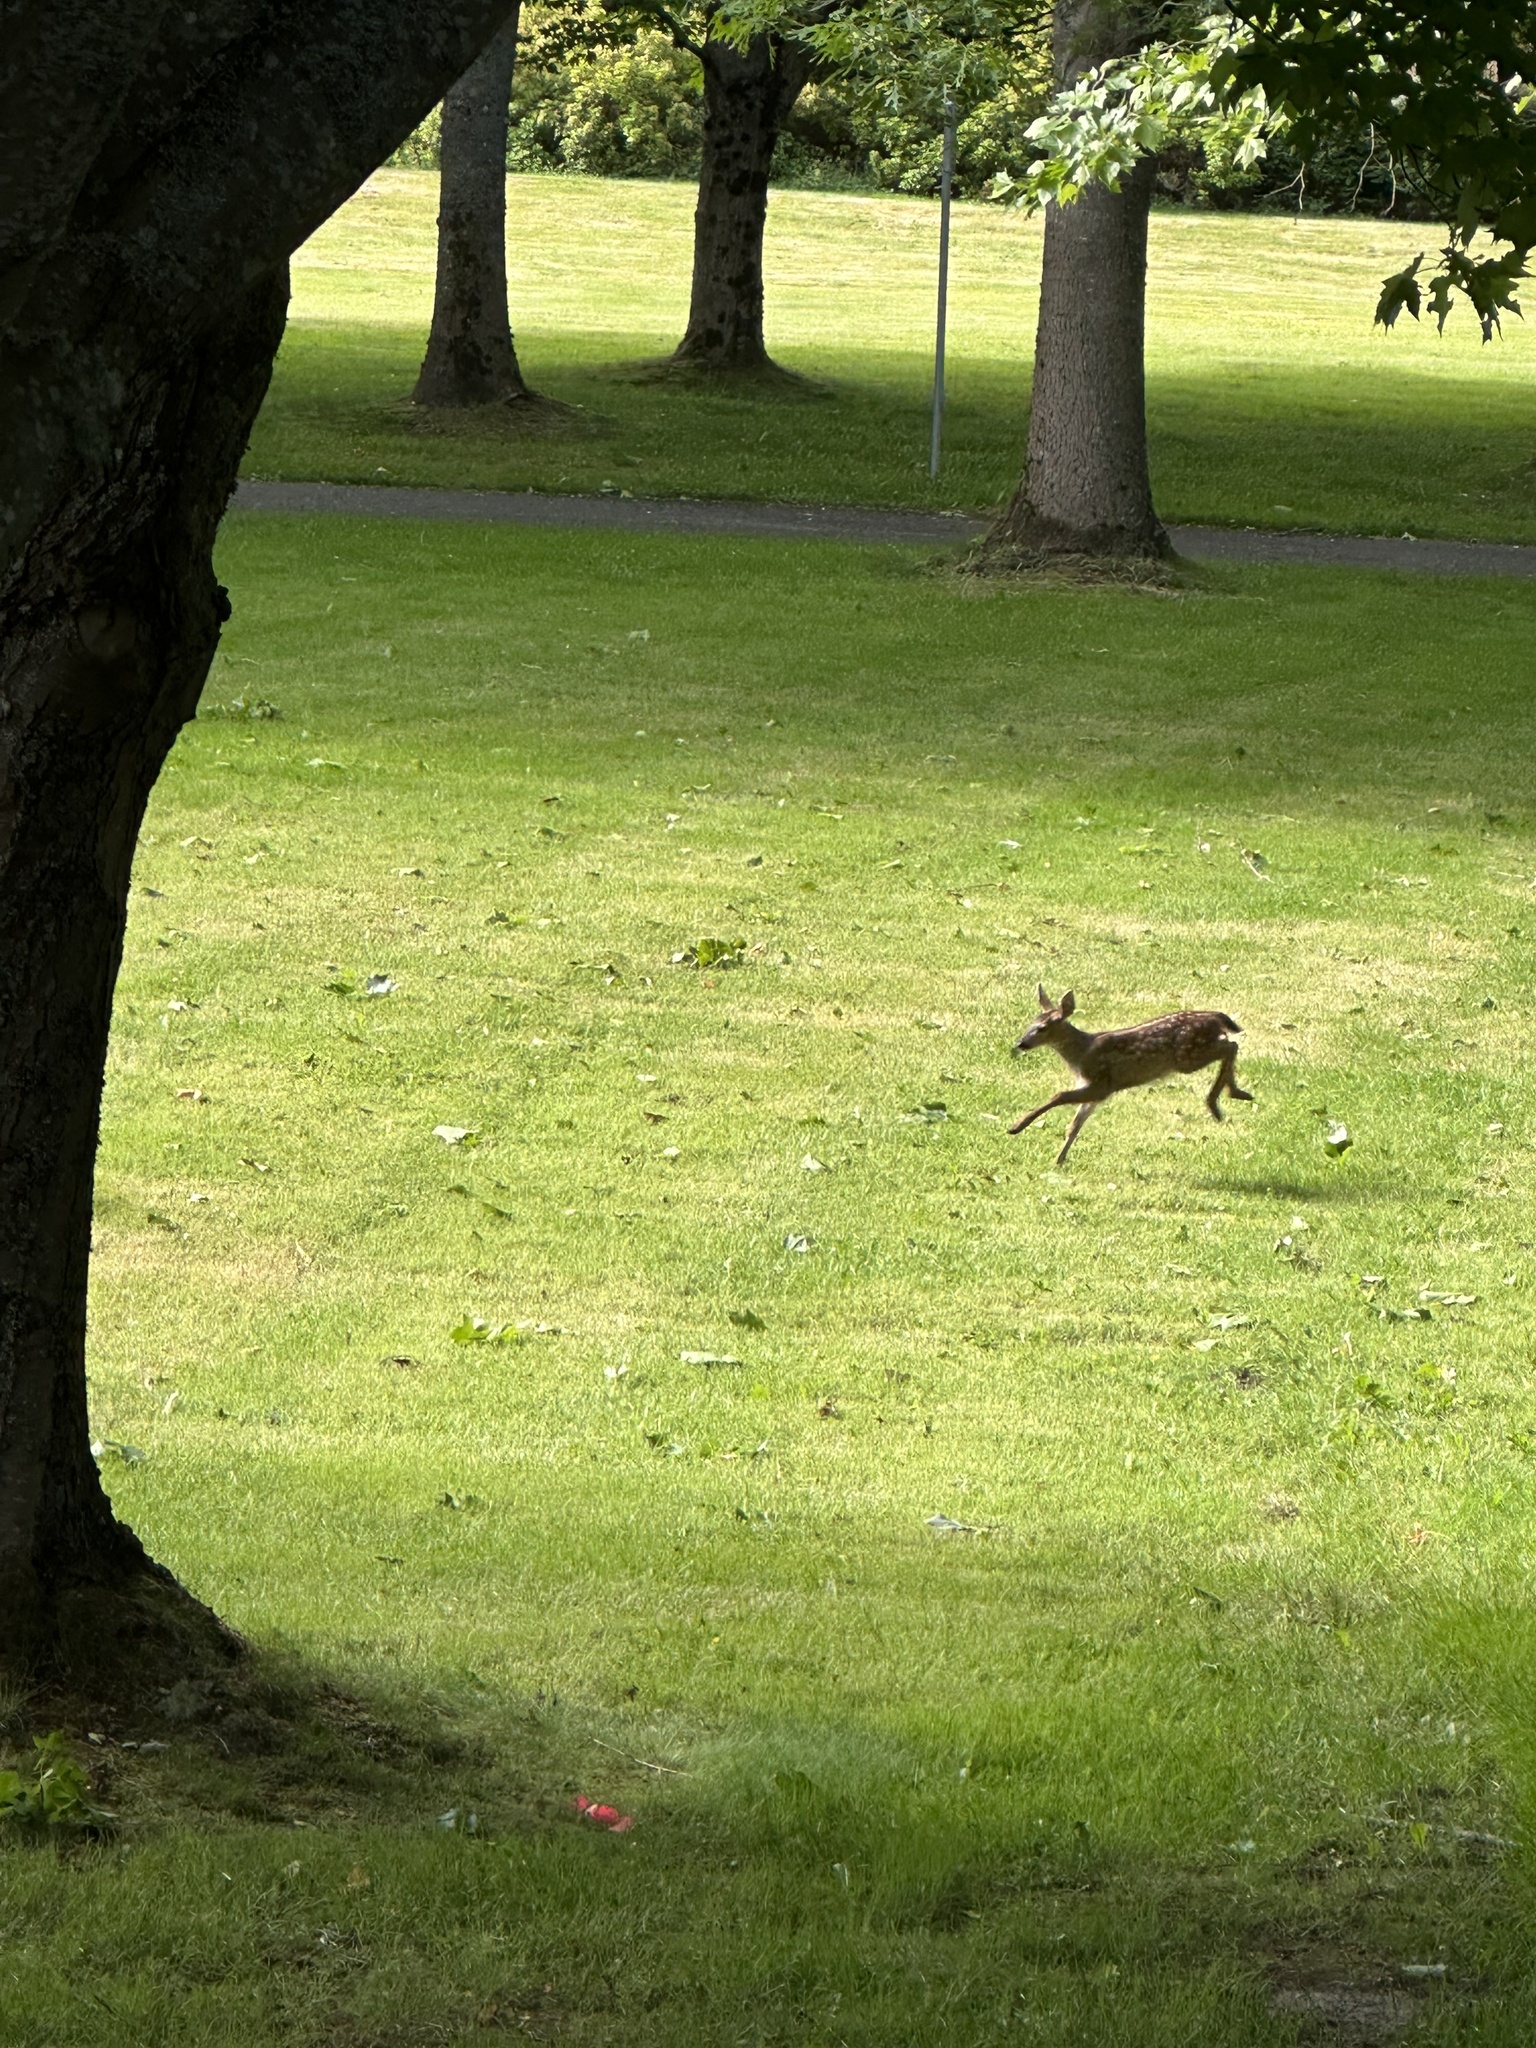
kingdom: Animalia
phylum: Chordata
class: Mammalia
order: Artiodactyla
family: Cervidae
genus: Odocoileus
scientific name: Odocoileus hemionus
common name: Mule deer
